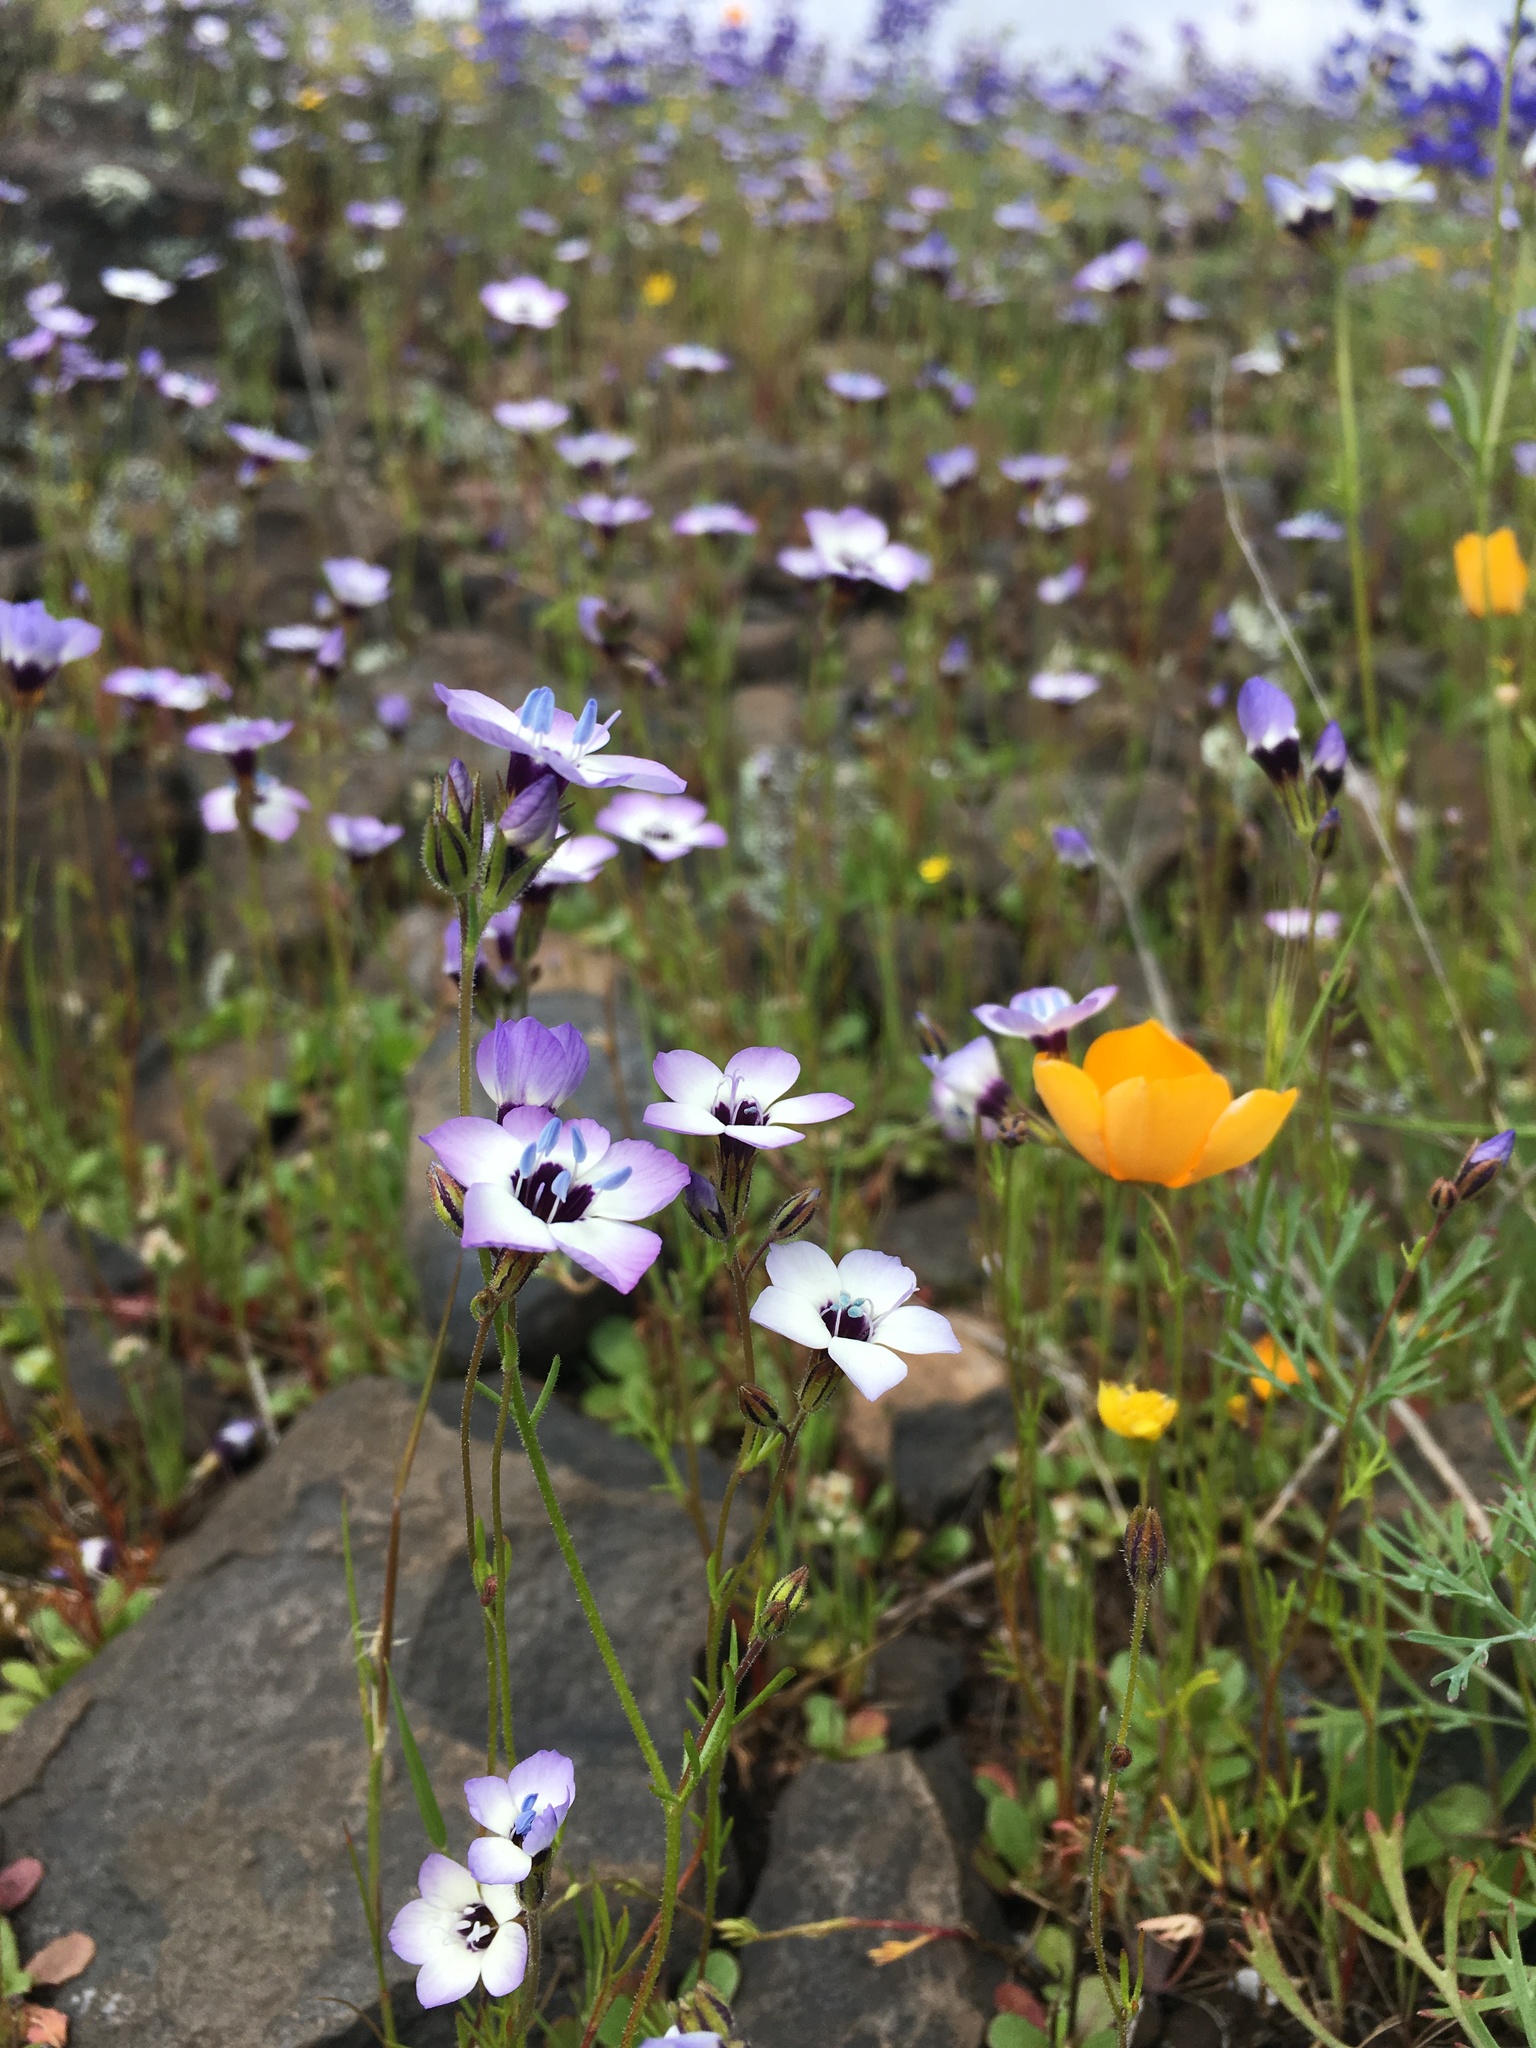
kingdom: Plantae
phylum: Tracheophyta
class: Magnoliopsida
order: Ericales
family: Polemoniaceae
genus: Gilia
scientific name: Gilia tricolor
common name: Bird's-eyes
